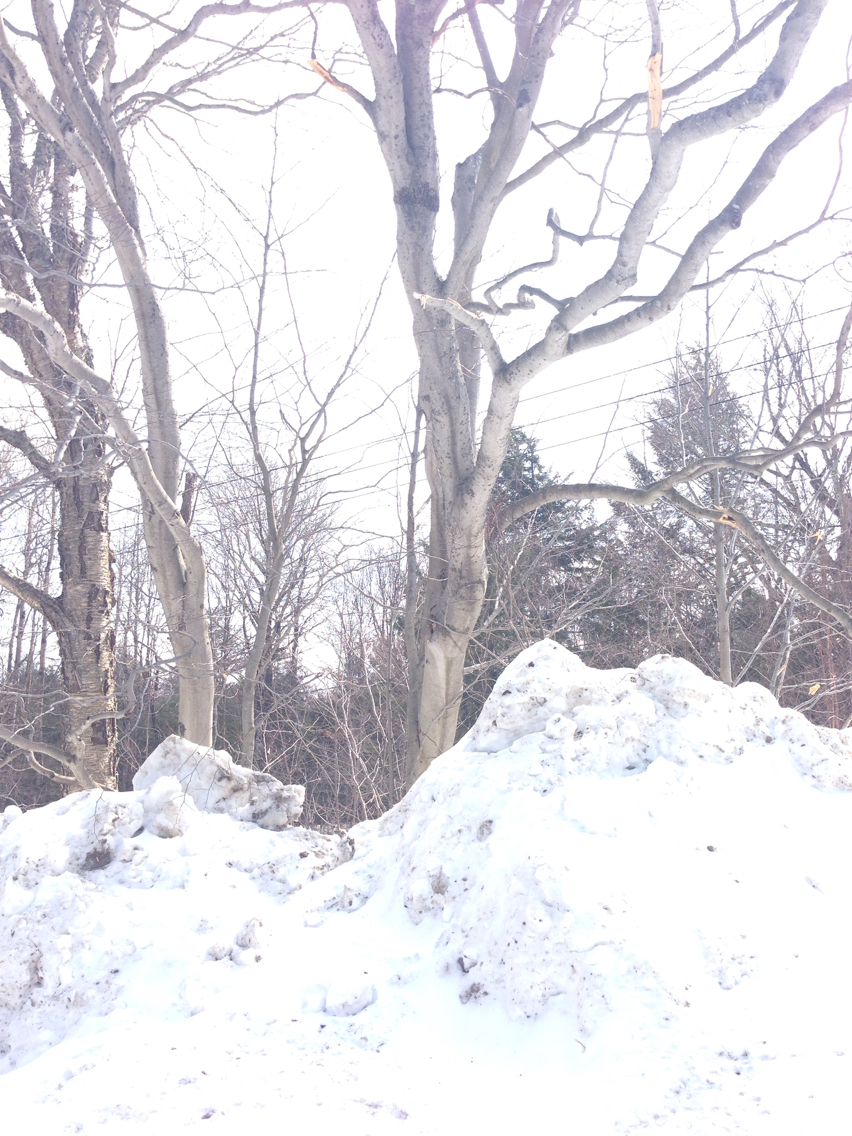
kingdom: Plantae
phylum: Tracheophyta
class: Magnoliopsida
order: Fagales
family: Fagaceae
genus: Fagus
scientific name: Fagus grandifolia
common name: American beech
